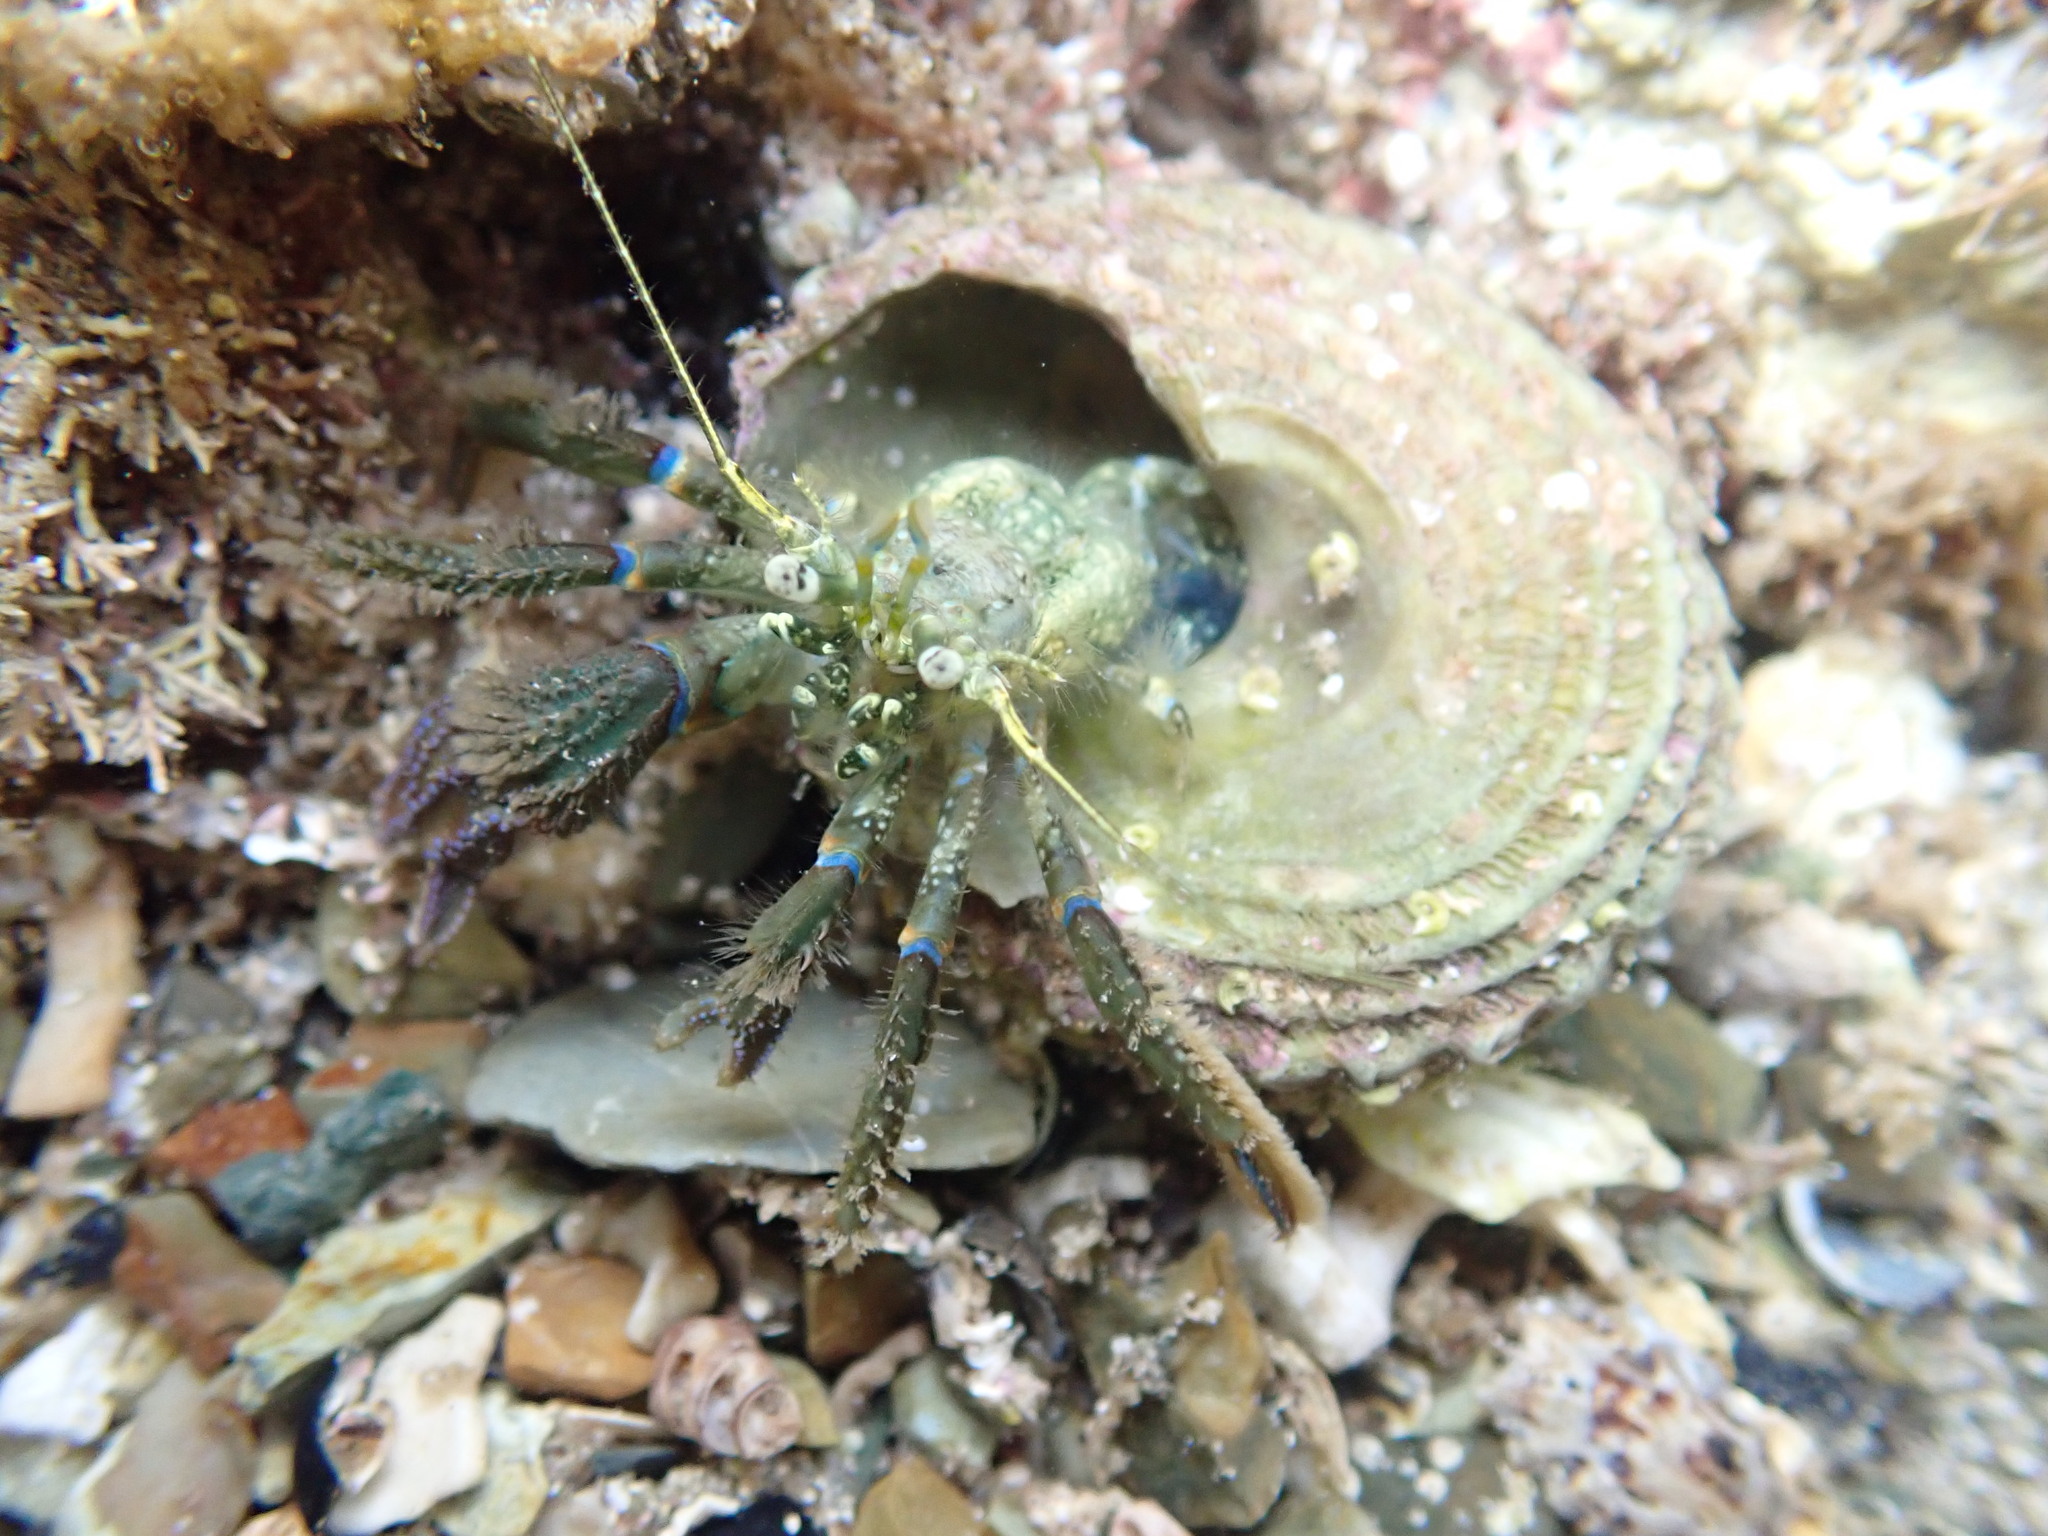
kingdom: Animalia
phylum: Arthropoda
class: Malacostraca
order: Decapoda
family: Paguridae
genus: Pagurus
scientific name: Pagurus novizealandiae
